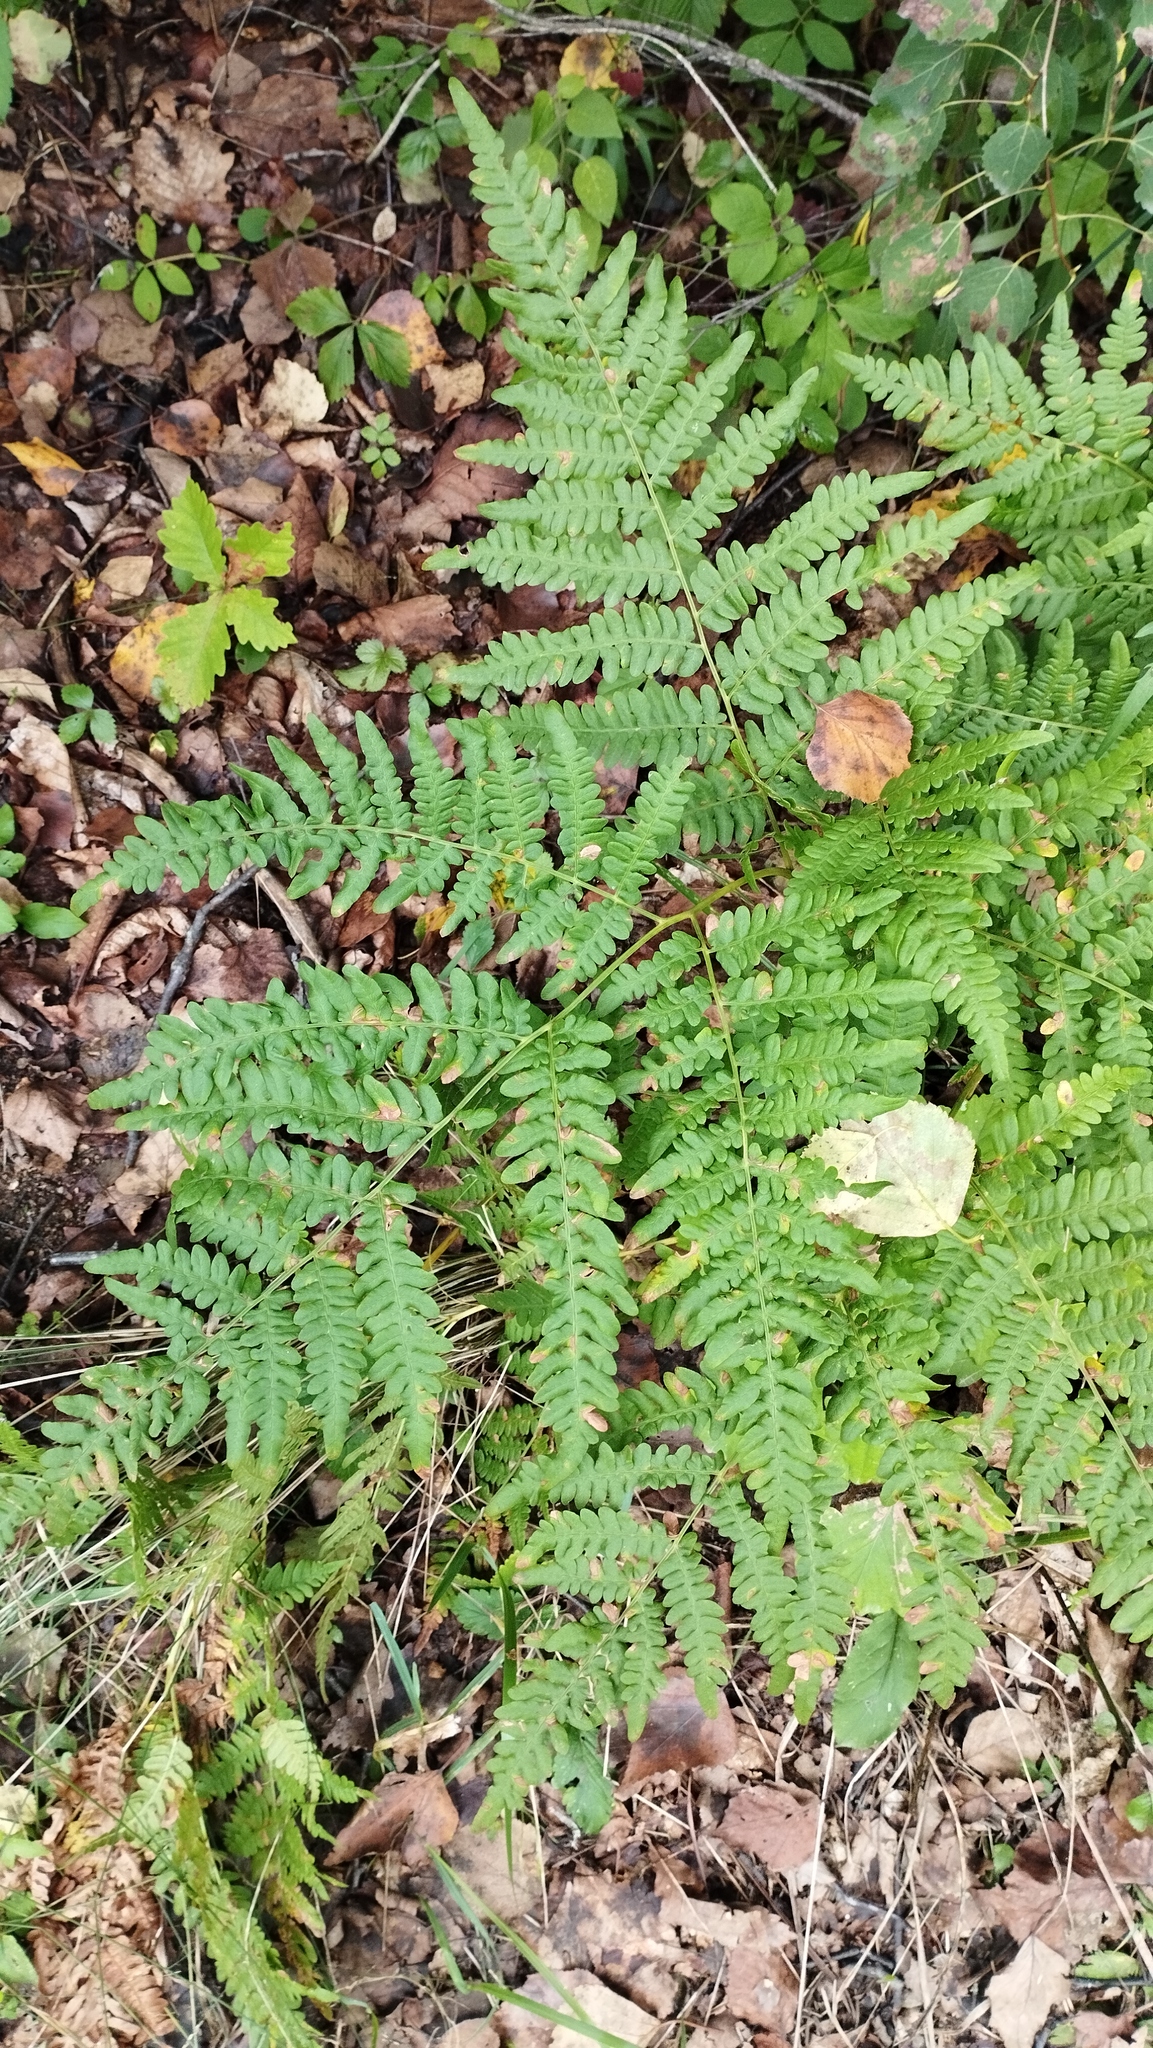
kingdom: Plantae
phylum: Tracheophyta
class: Polypodiopsida
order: Polypodiales
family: Dennstaedtiaceae
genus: Pteridium
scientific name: Pteridium aquilinum
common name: Bracken
